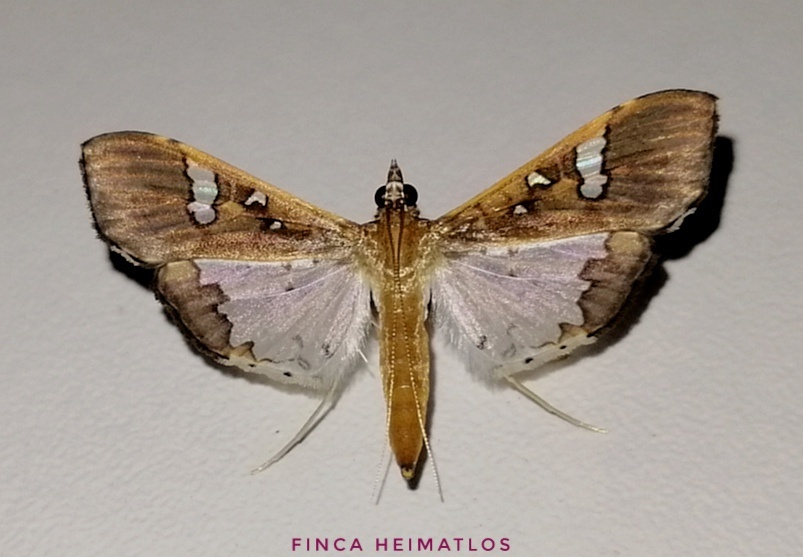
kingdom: Animalia
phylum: Arthropoda
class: Insecta
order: Lepidoptera
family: Crambidae
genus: Maruca
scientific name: Maruca vitrata
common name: Maruca pod borer
